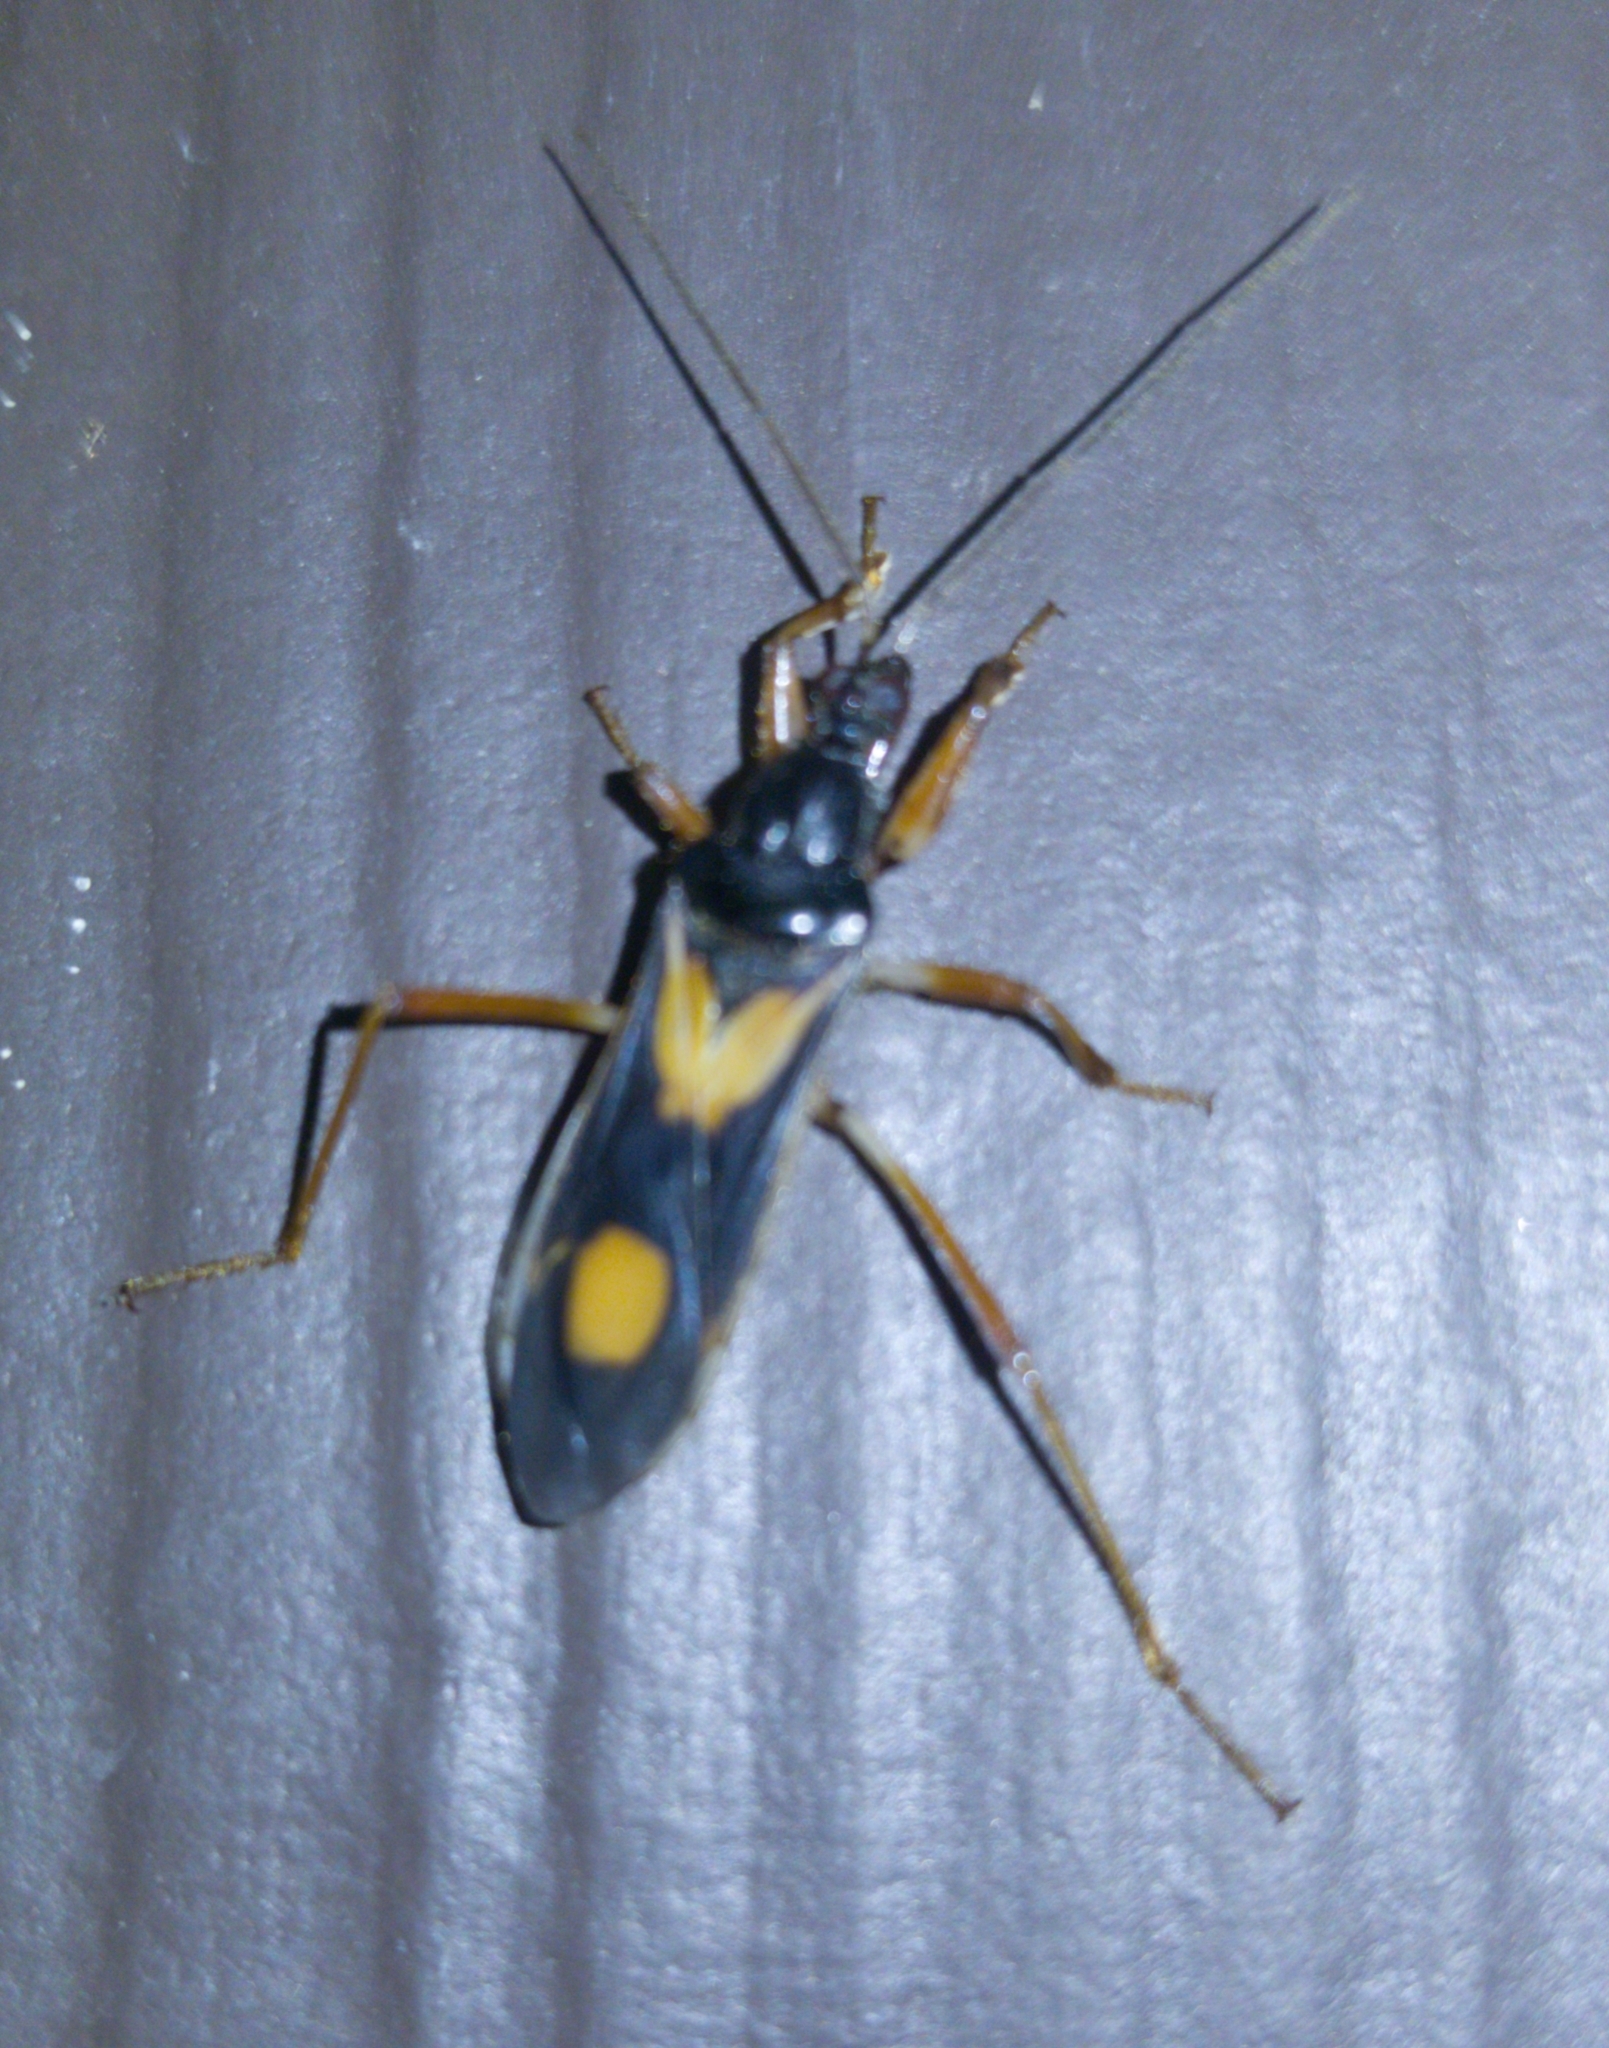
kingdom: Animalia
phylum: Arthropoda
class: Insecta
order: Hemiptera
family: Reduviidae
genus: Rasahus
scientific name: Rasahus hamatus
